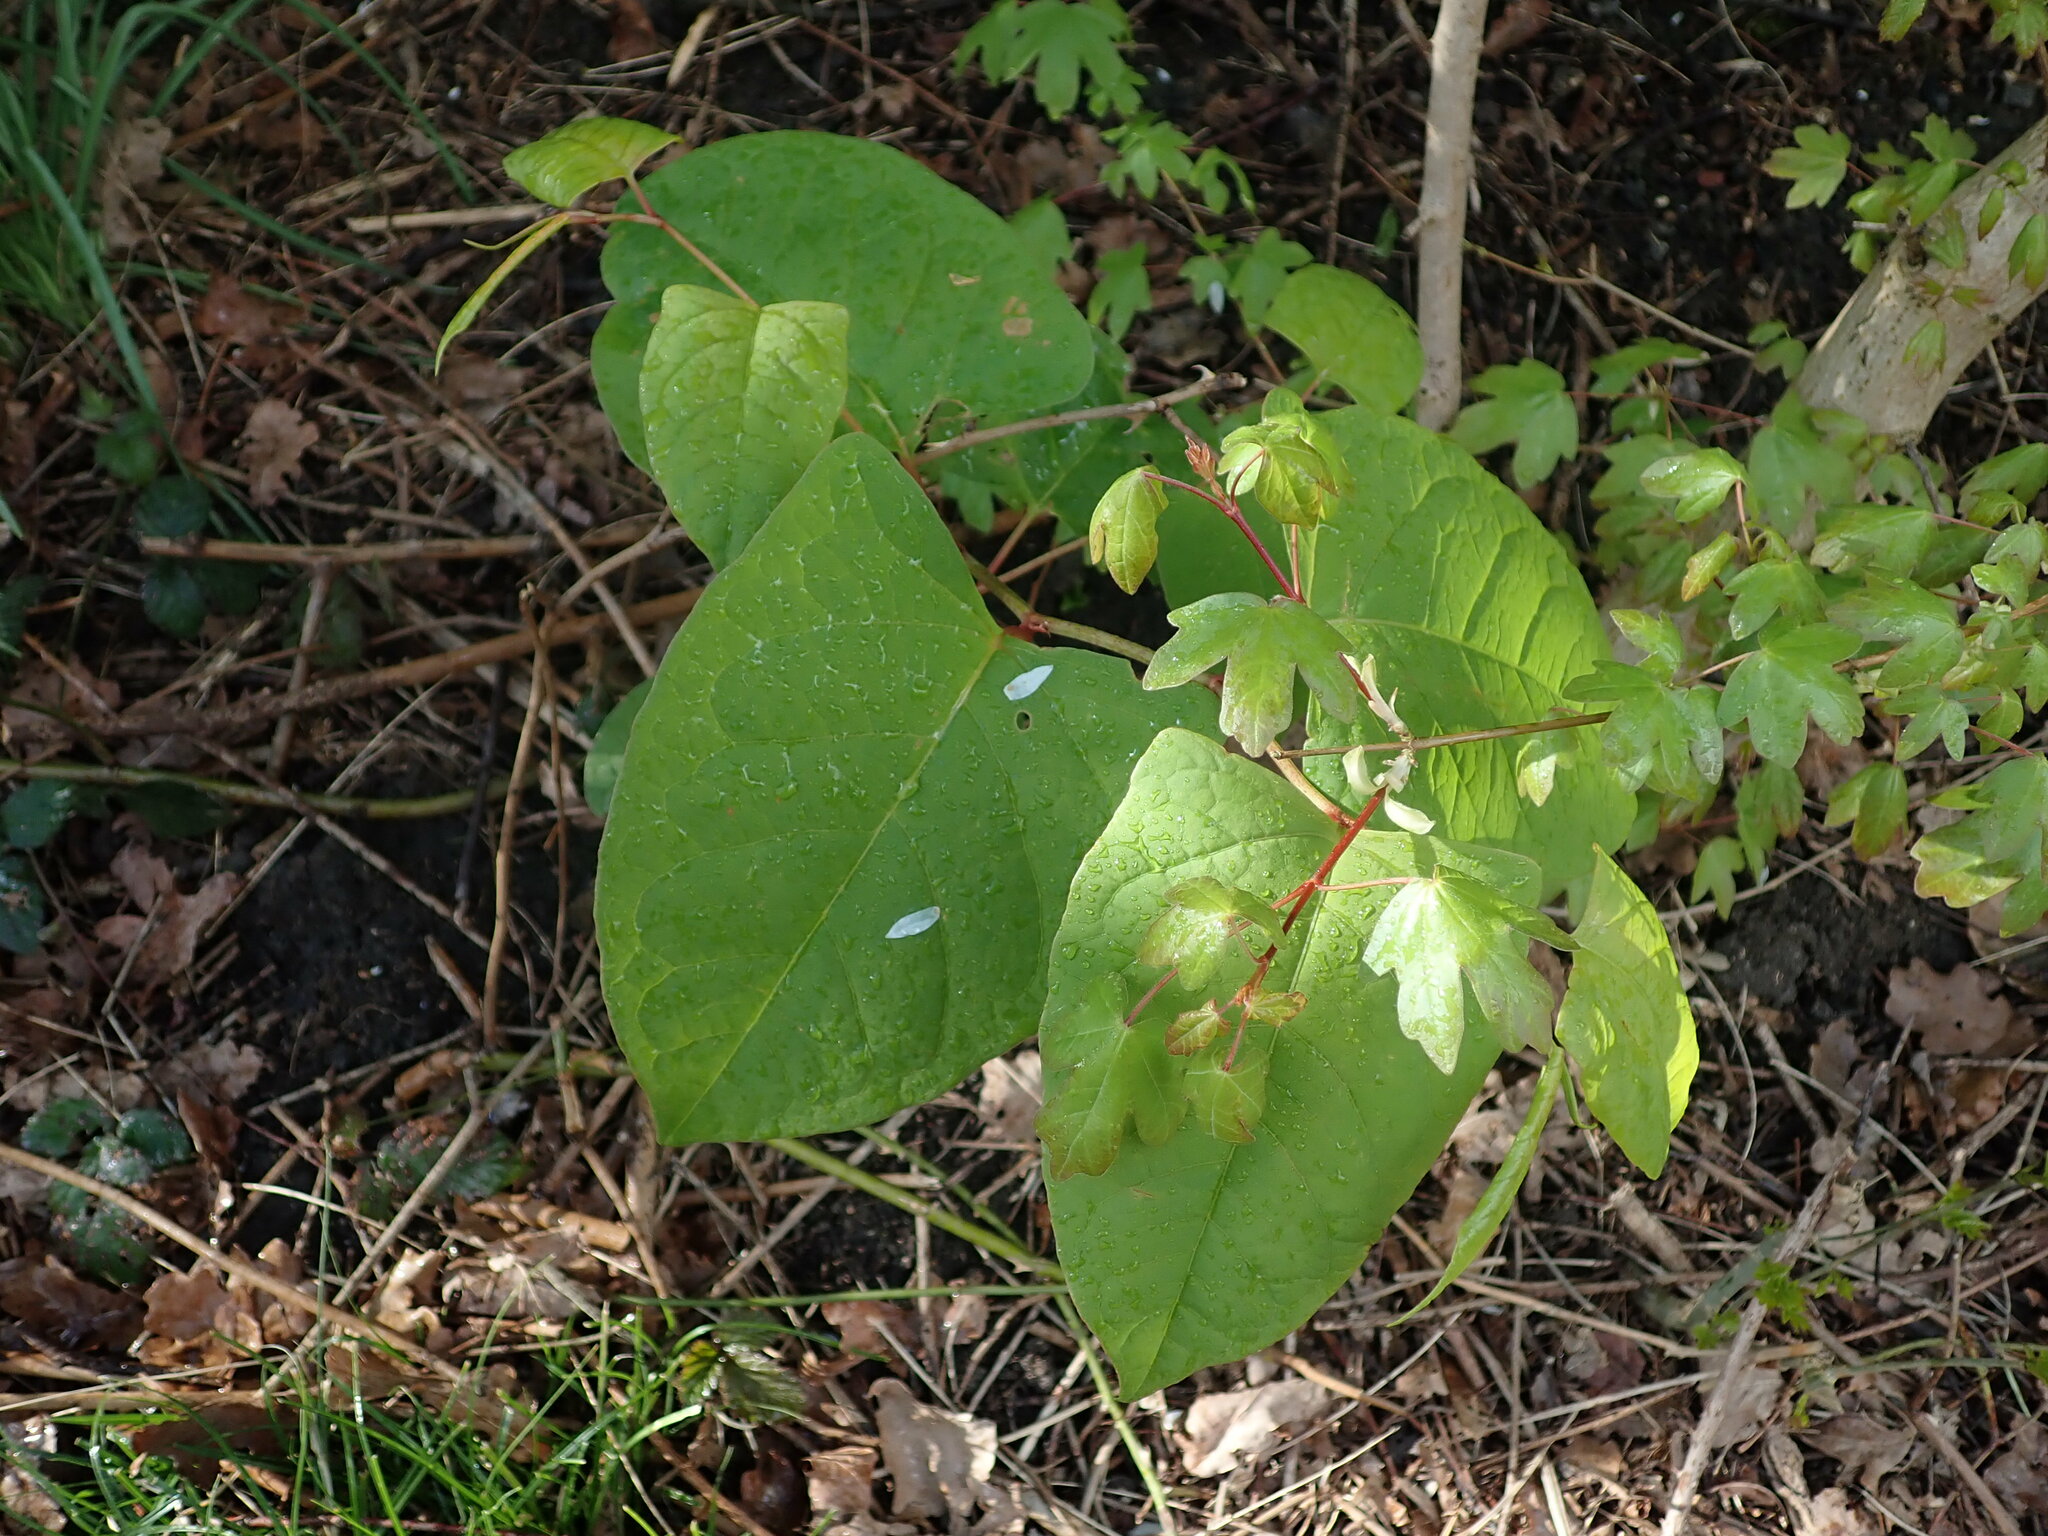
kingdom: Plantae
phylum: Tracheophyta
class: Magnoliopsida
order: Caryophyllales
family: Polygonaceae
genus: Reynoutria
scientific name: Reynoutria japonica
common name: Japanese knotweed
